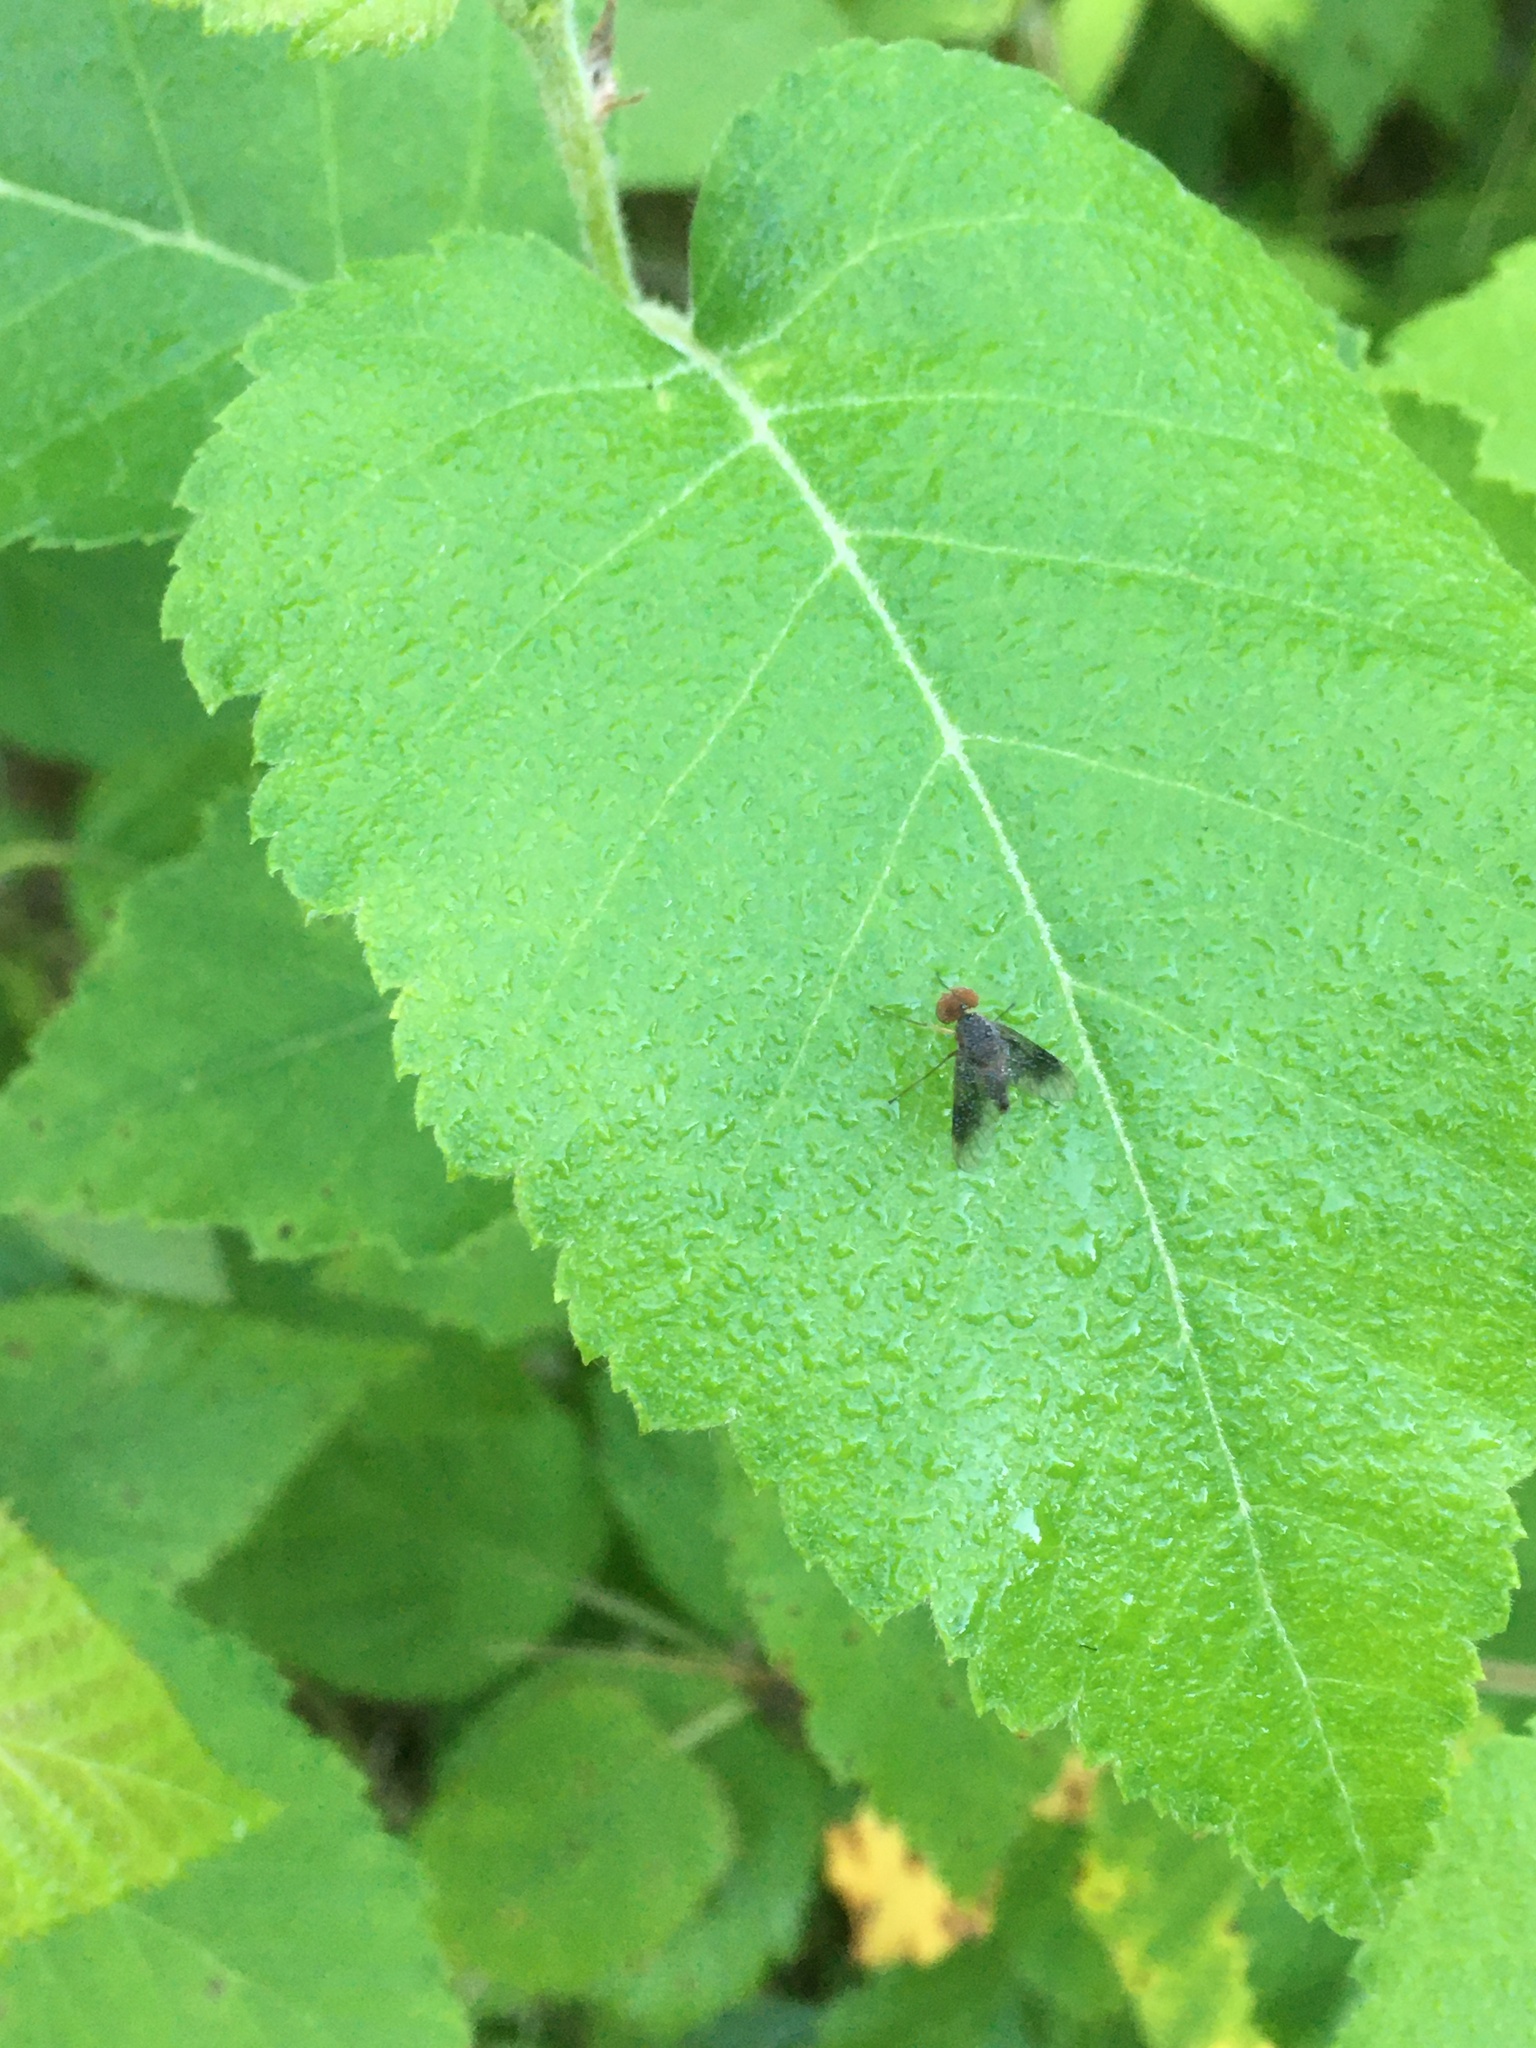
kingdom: Animalia
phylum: Arthropoda
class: Insecta
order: Diptera
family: Rhagionidae
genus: Chrysopilus
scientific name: Chrysopilus quadratus
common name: Quadrate snipe fly
